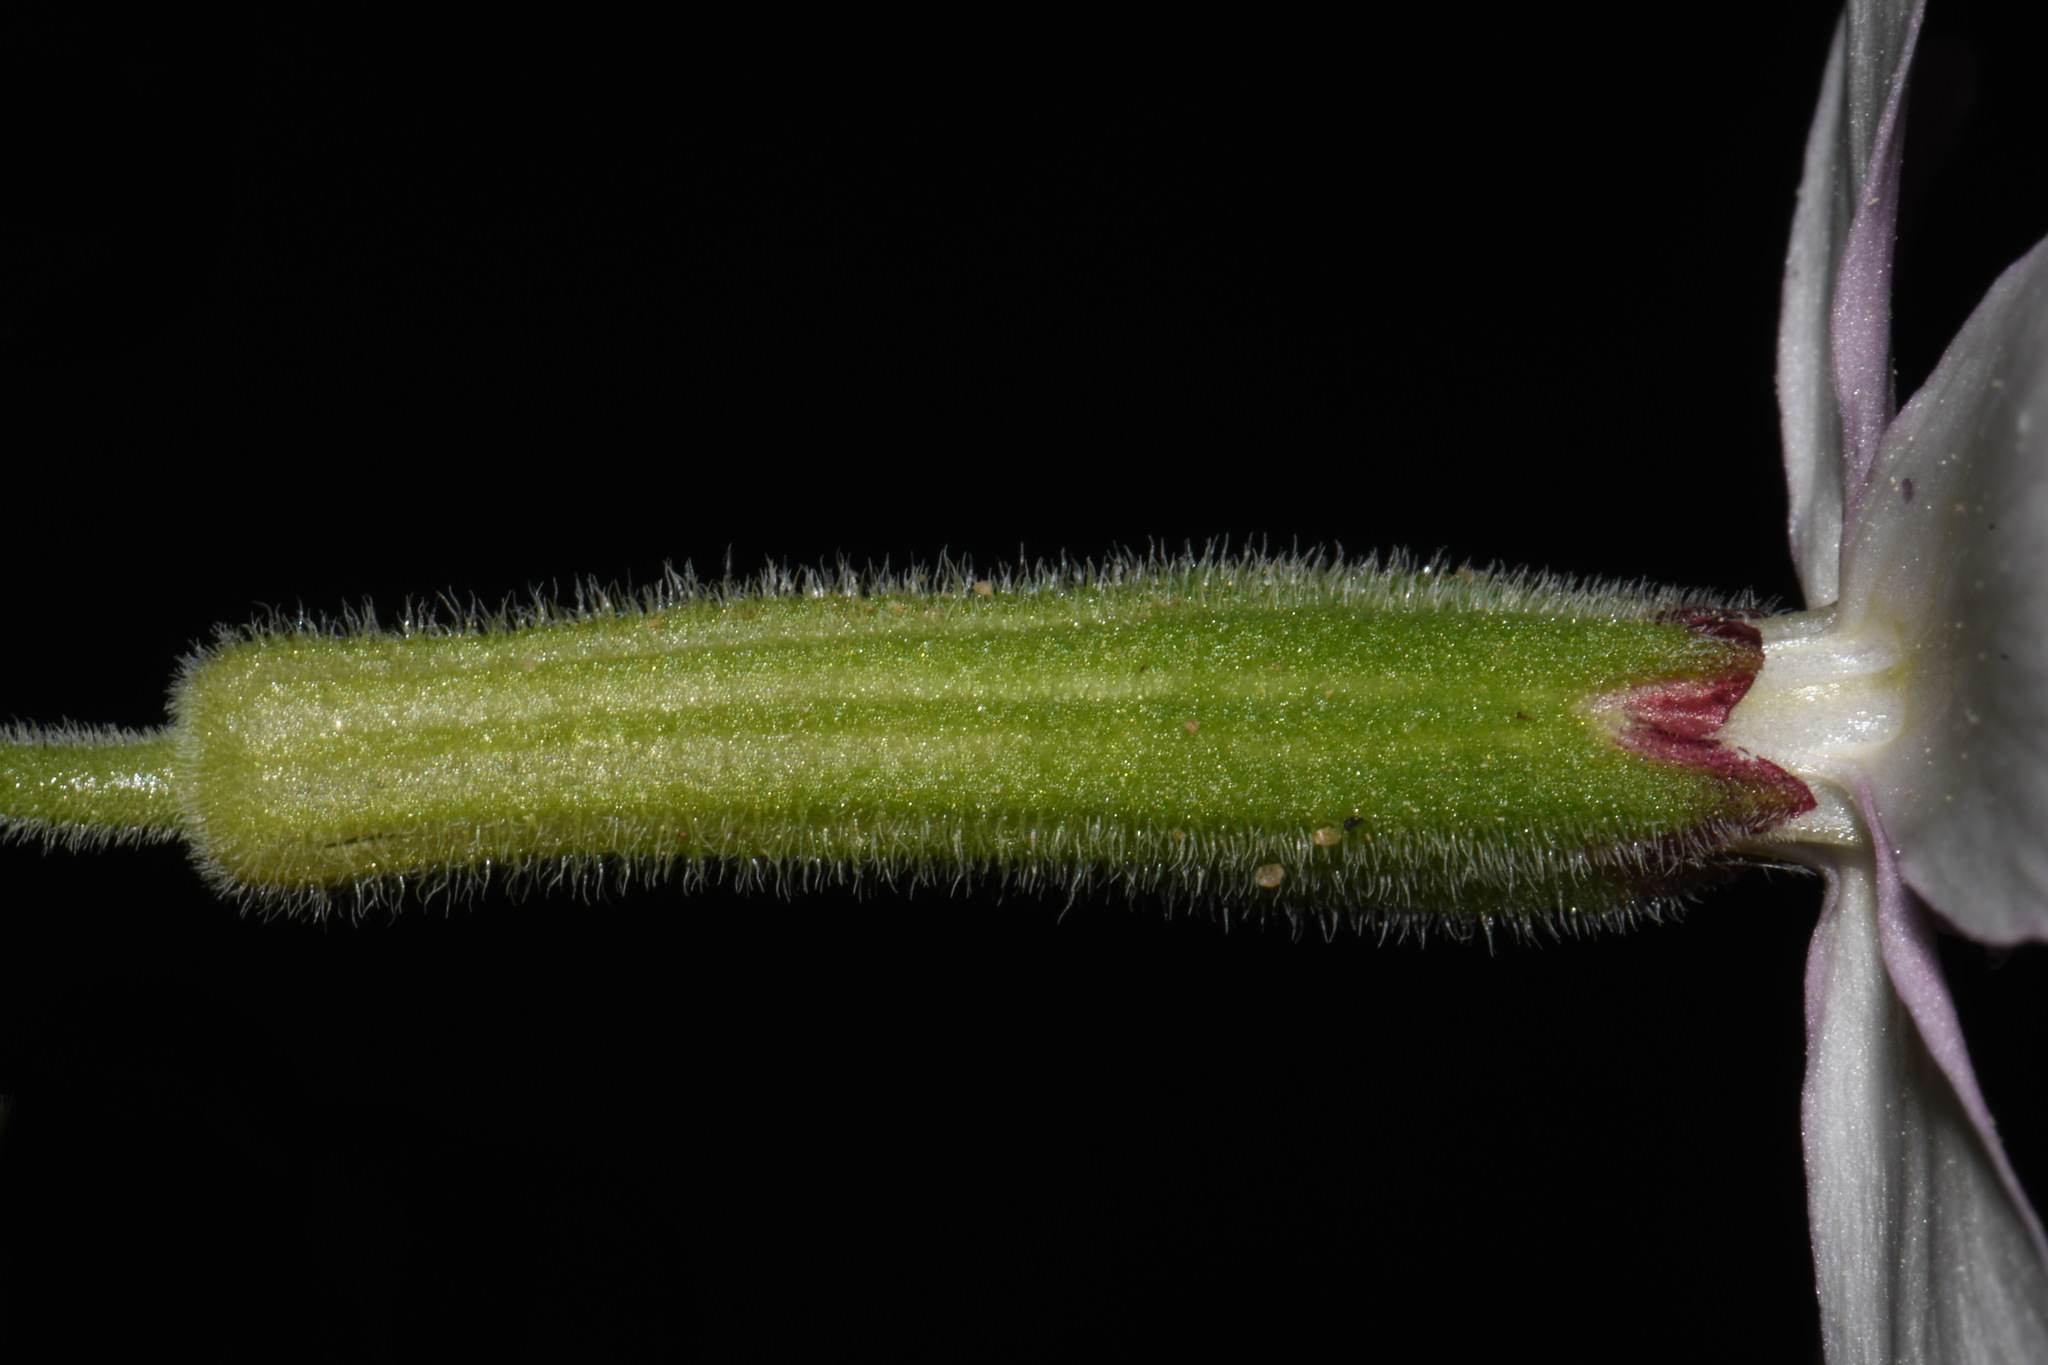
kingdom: Plantae
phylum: Tracheophyta
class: Magnoliopsida
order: Caryophyllales
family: Caryophyllaceae
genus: Silene
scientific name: Silene caroliniana
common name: Sticky catchfly
